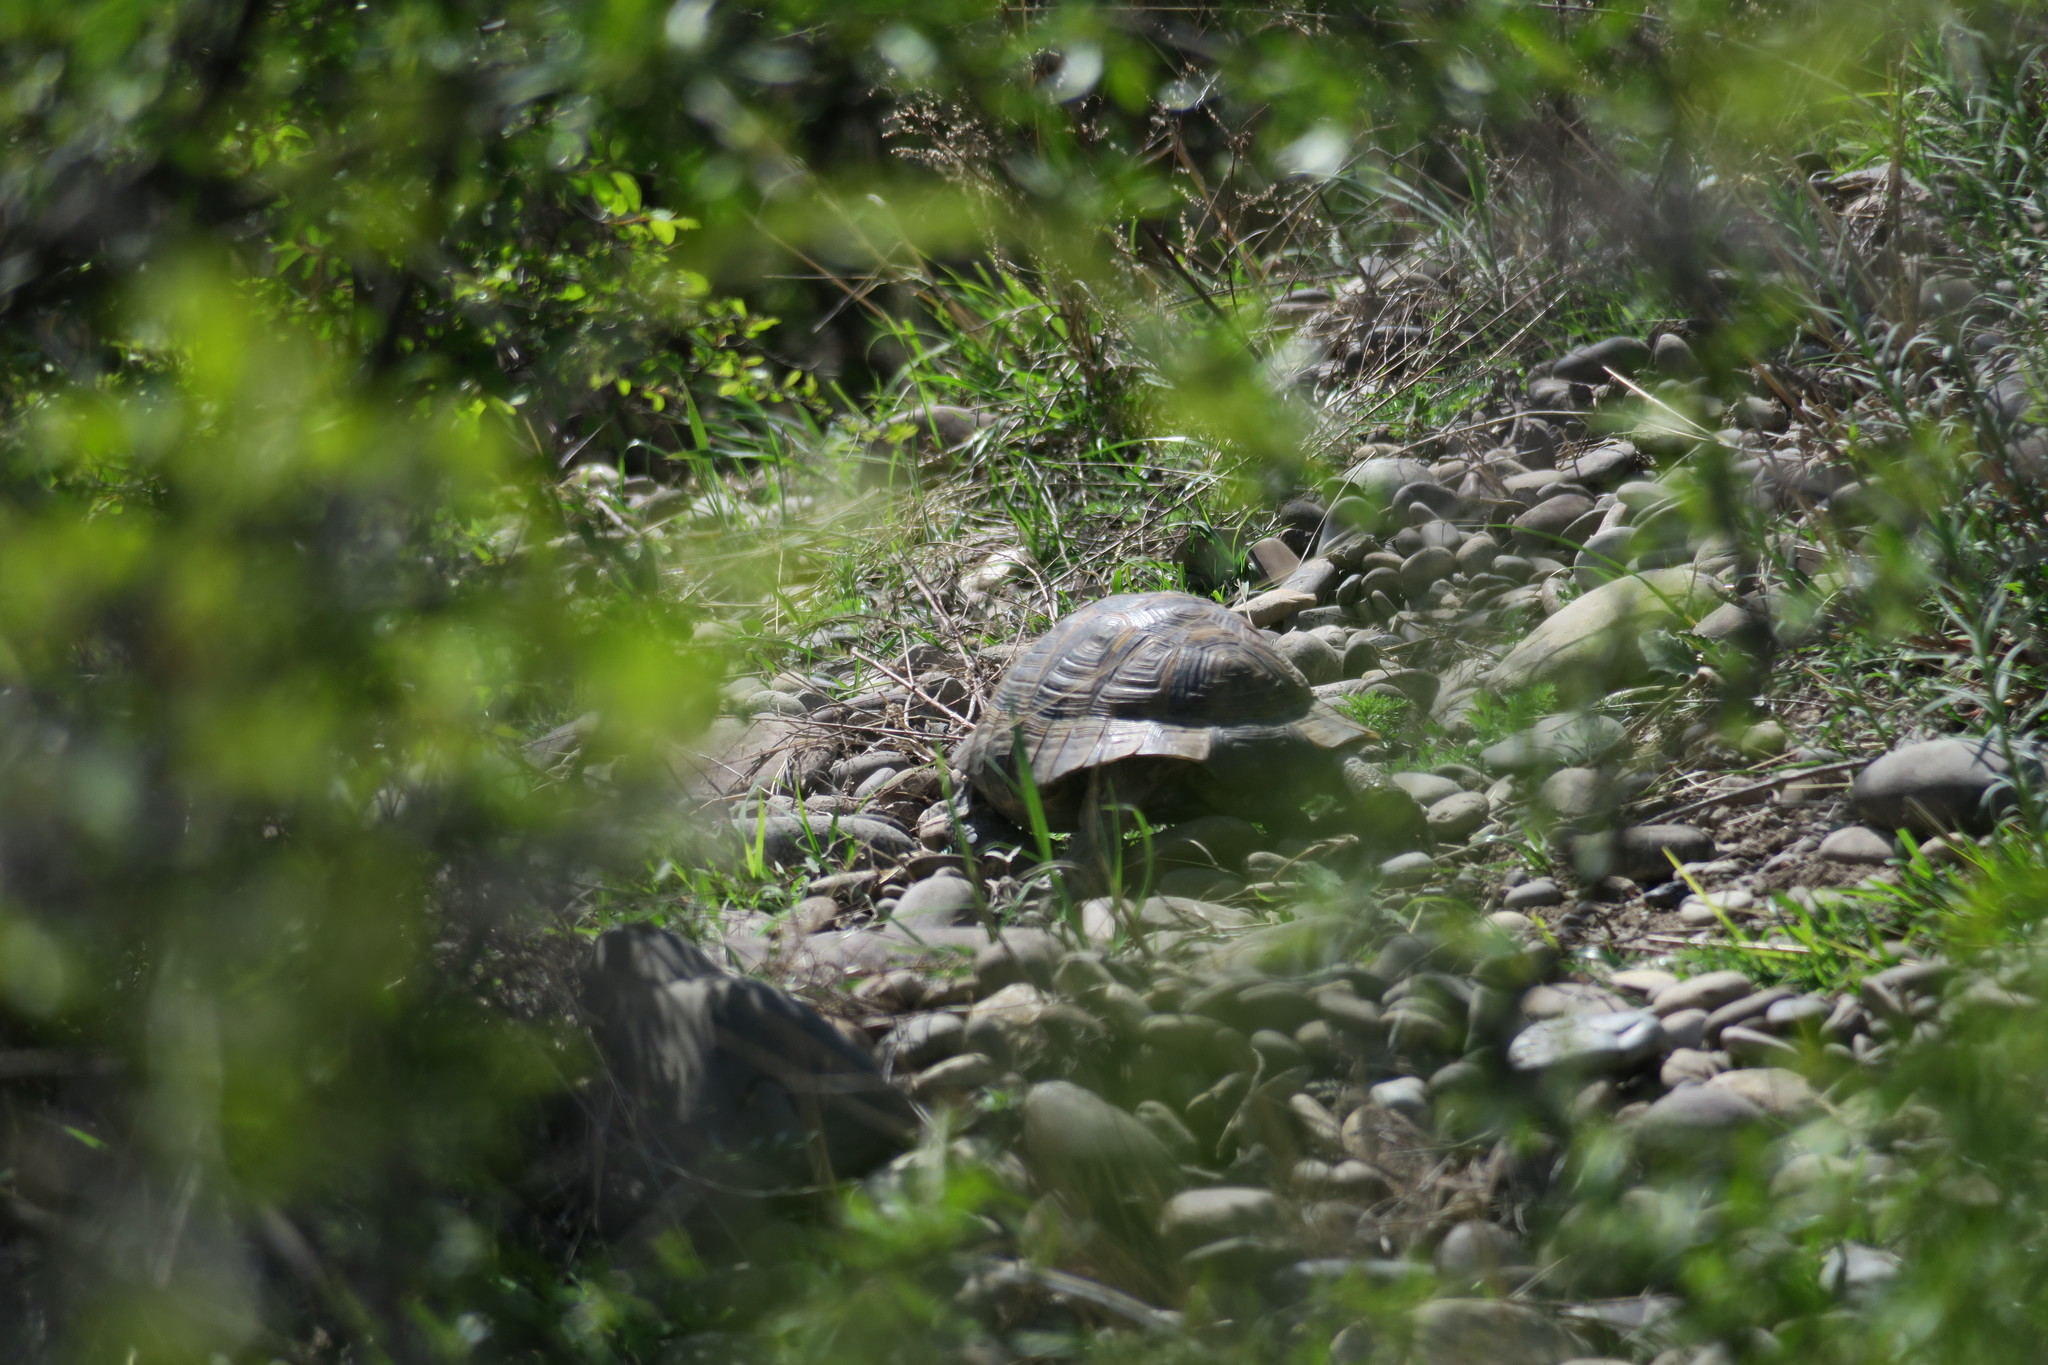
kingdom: Animalia
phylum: Chordata
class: Testudines
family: Testudinidae
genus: Testudo
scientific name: Testudo graeca
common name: Common tortoise
